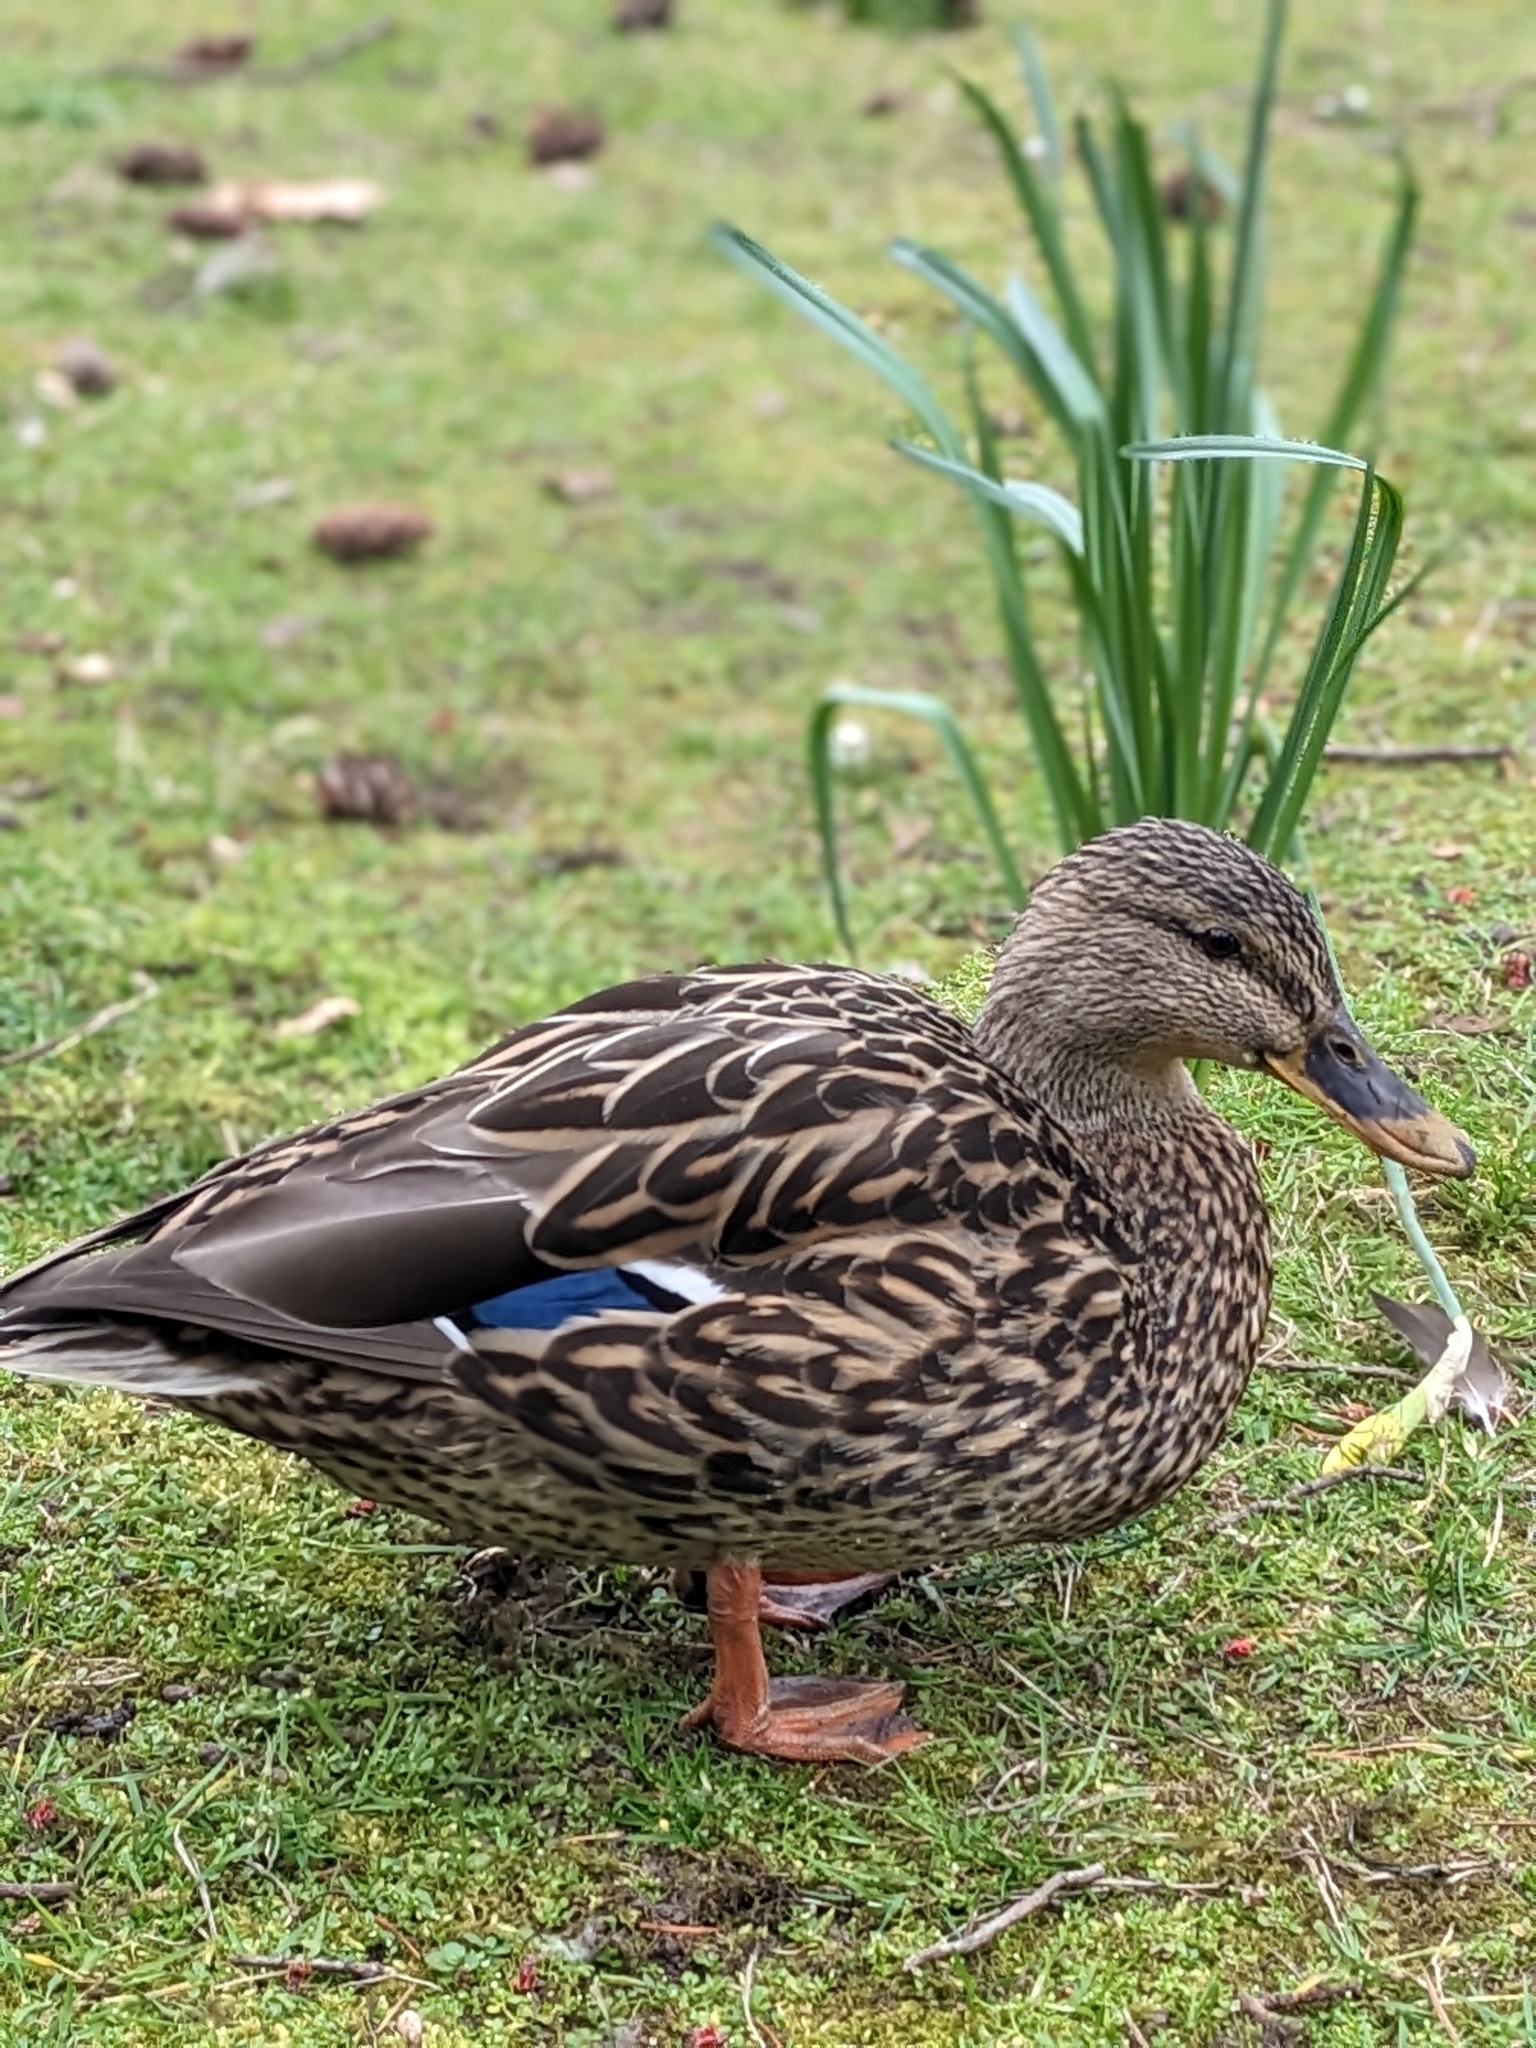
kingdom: Animalia
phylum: Chordata
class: Aves
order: Anseriformes
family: Anatidae
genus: Anas
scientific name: Anas platyrhynchos
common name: Mallard
